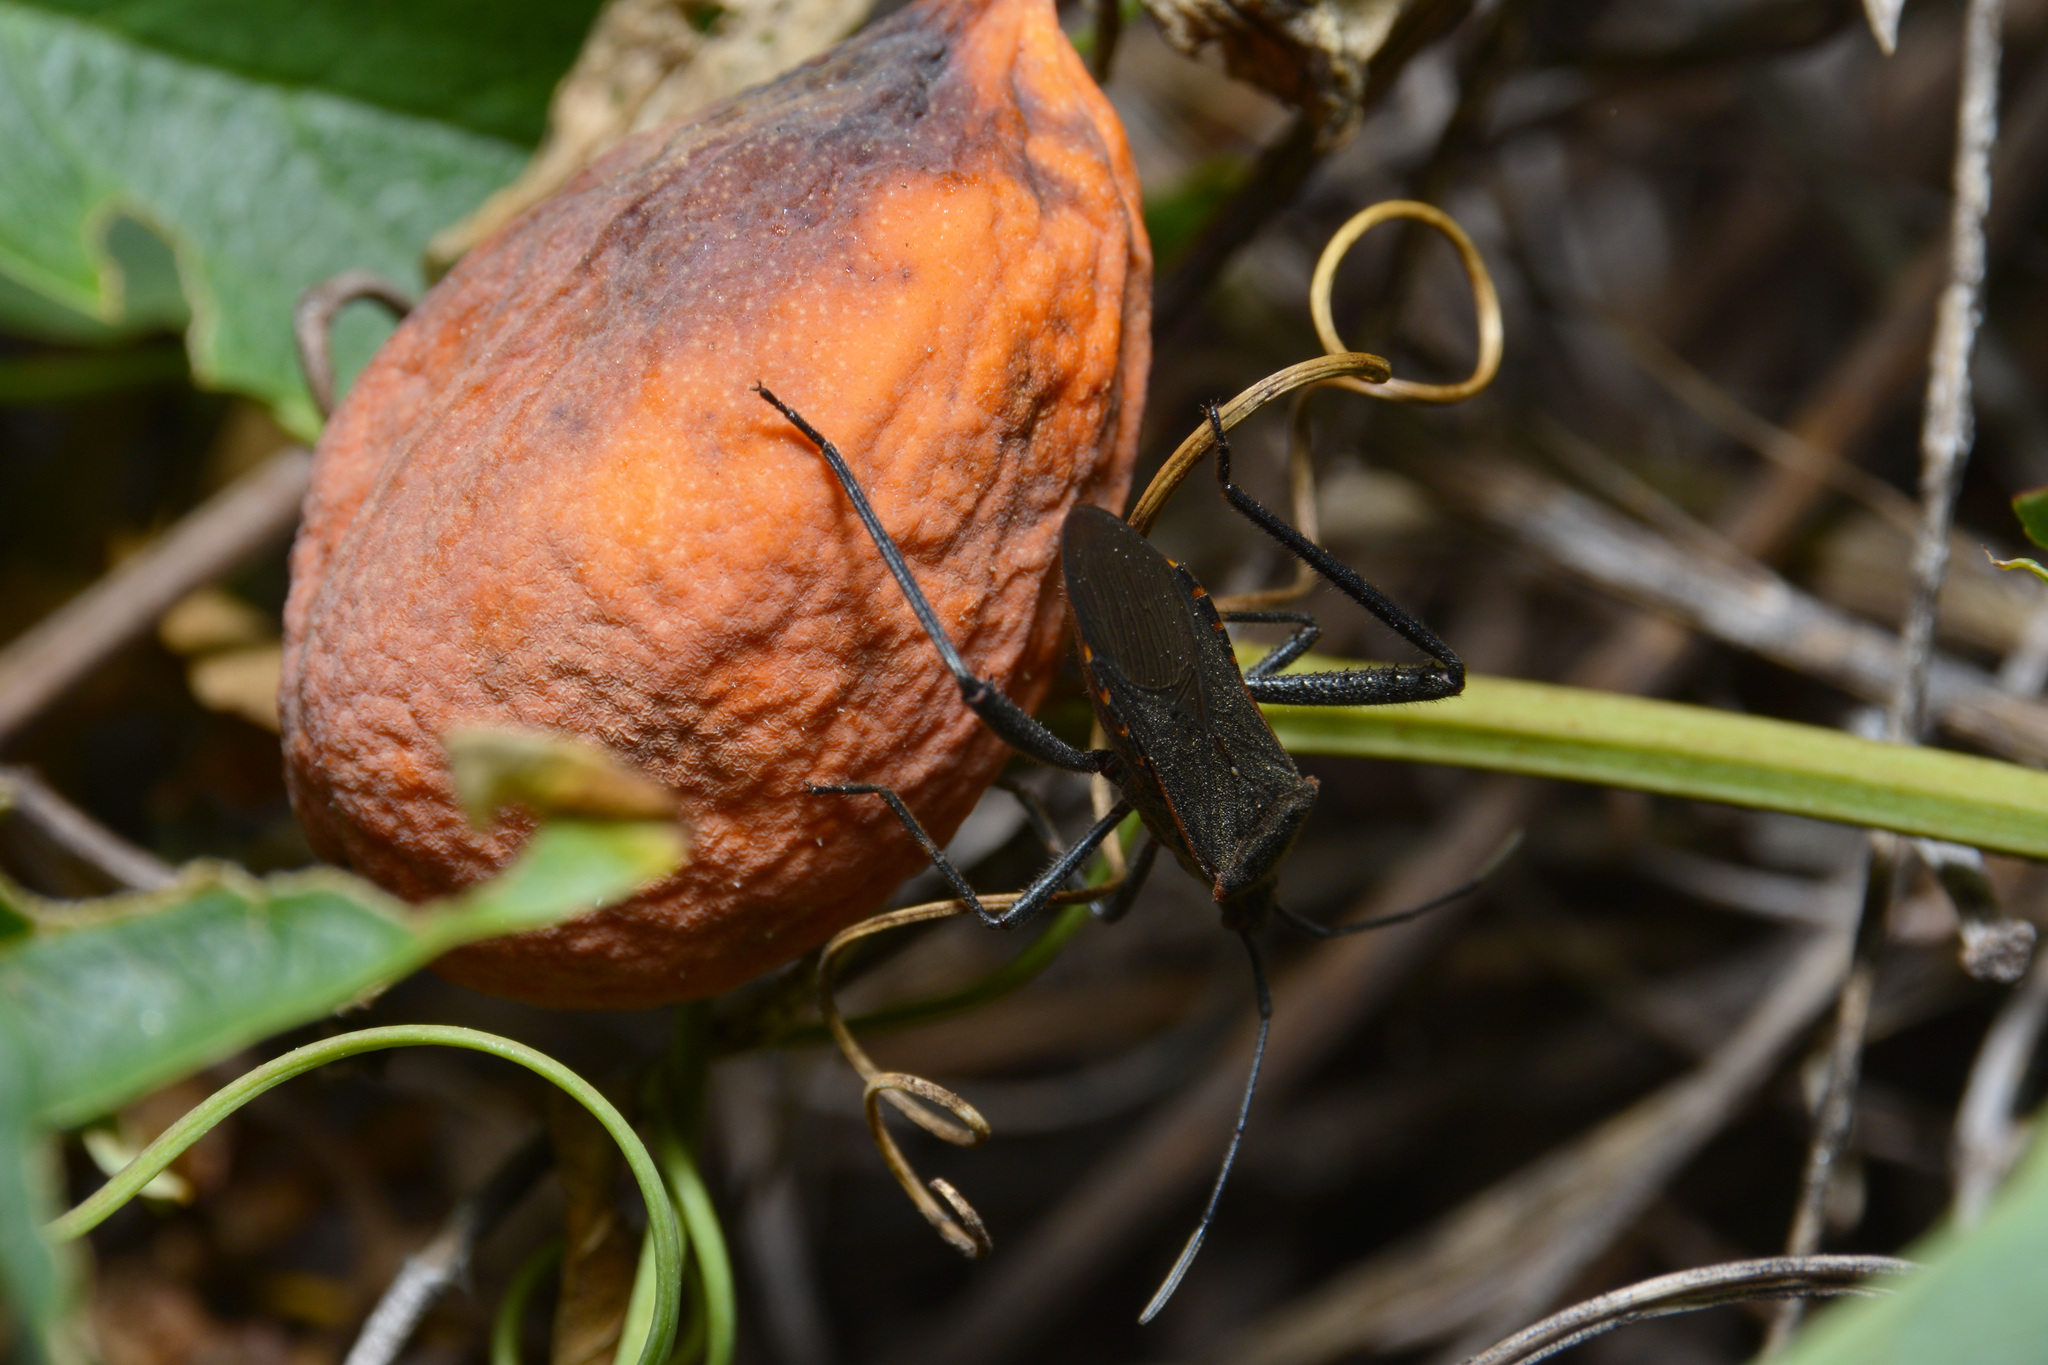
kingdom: Animalia
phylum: Arthropoda
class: Insecta
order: Hemiptera
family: Coreidae
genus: Phthiacnemia
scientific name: Phthiacnemia picta
